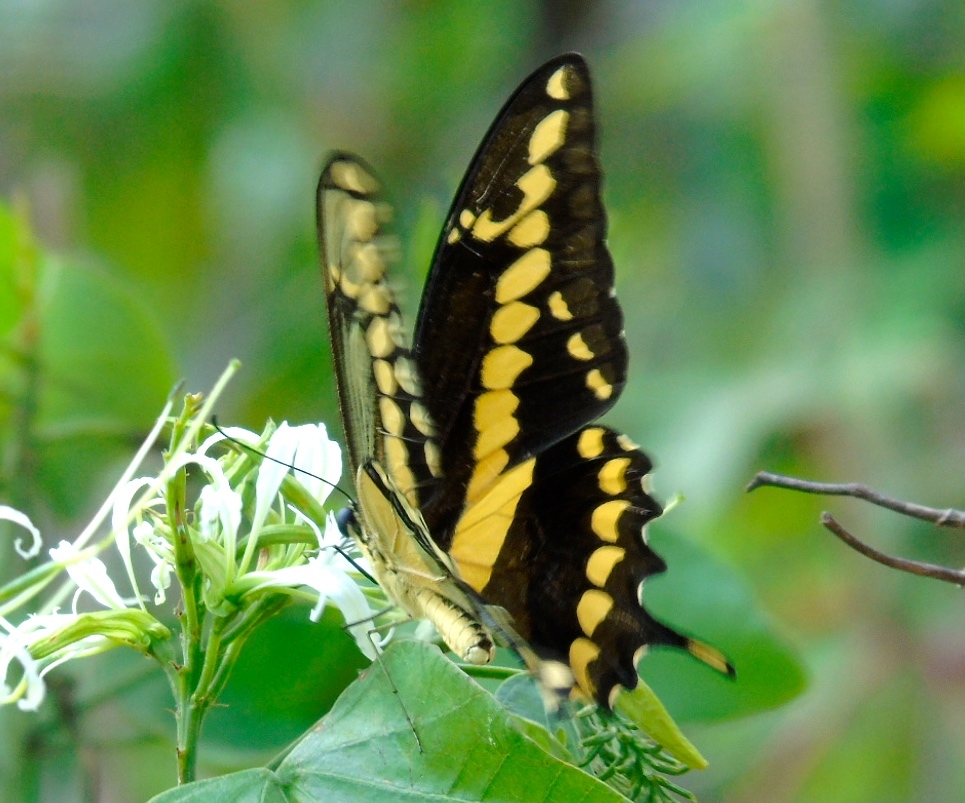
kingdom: Animalia
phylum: Arthropoda
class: Insecta
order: Lepidoptera
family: Papilionidae
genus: Papilio
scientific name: Papilio rumiko
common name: Western giant swallowtail
